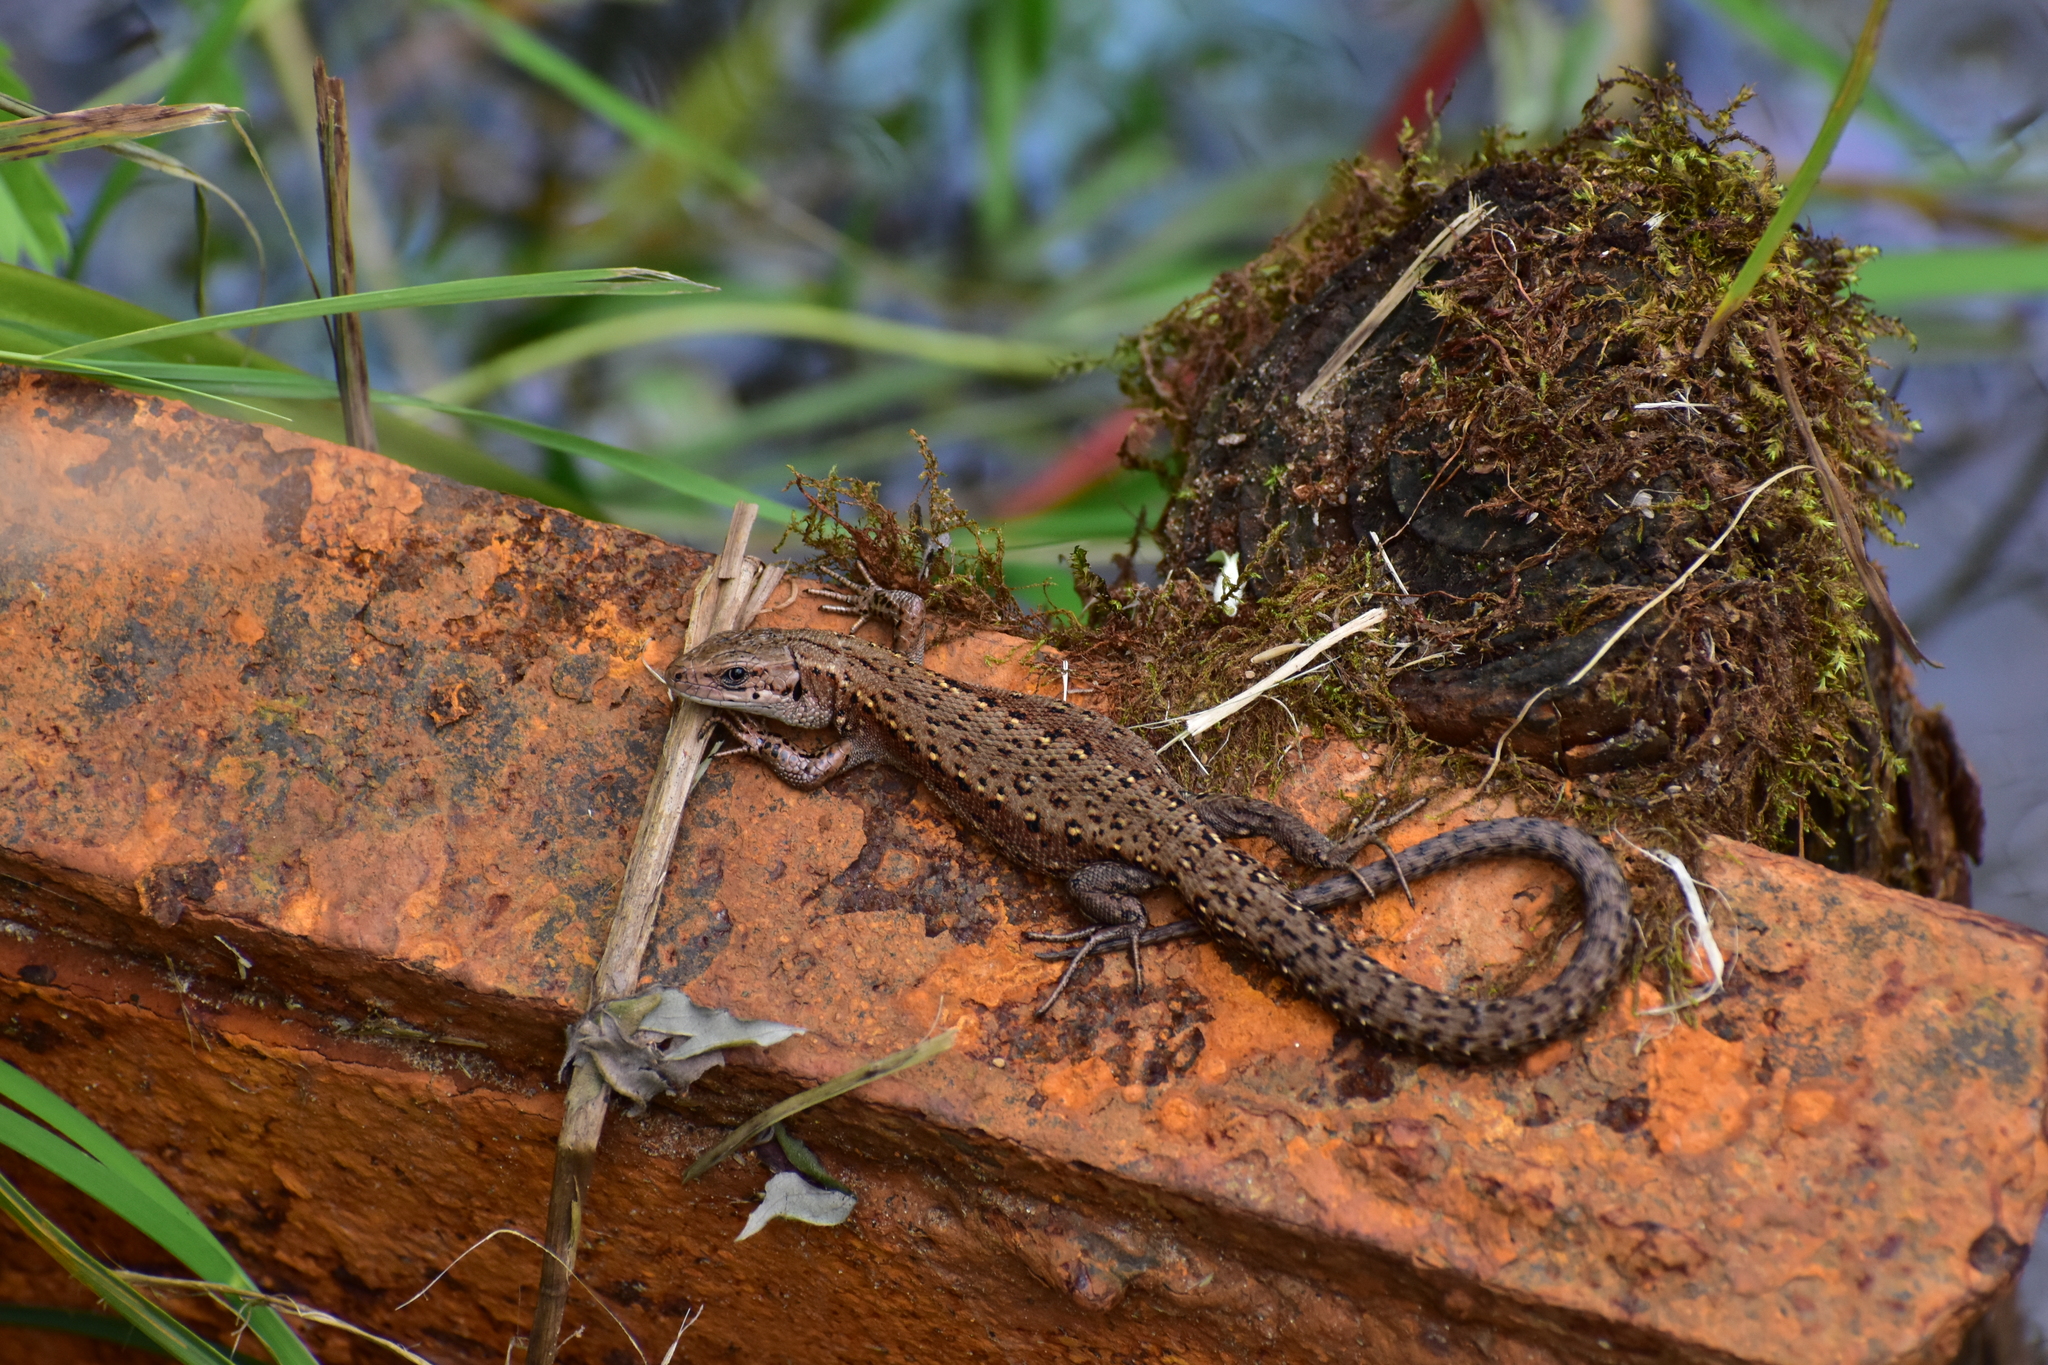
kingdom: Animalia
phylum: Chordata
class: Squamata
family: Lacertidae
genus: Zootoca
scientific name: Zootoca vivipara
